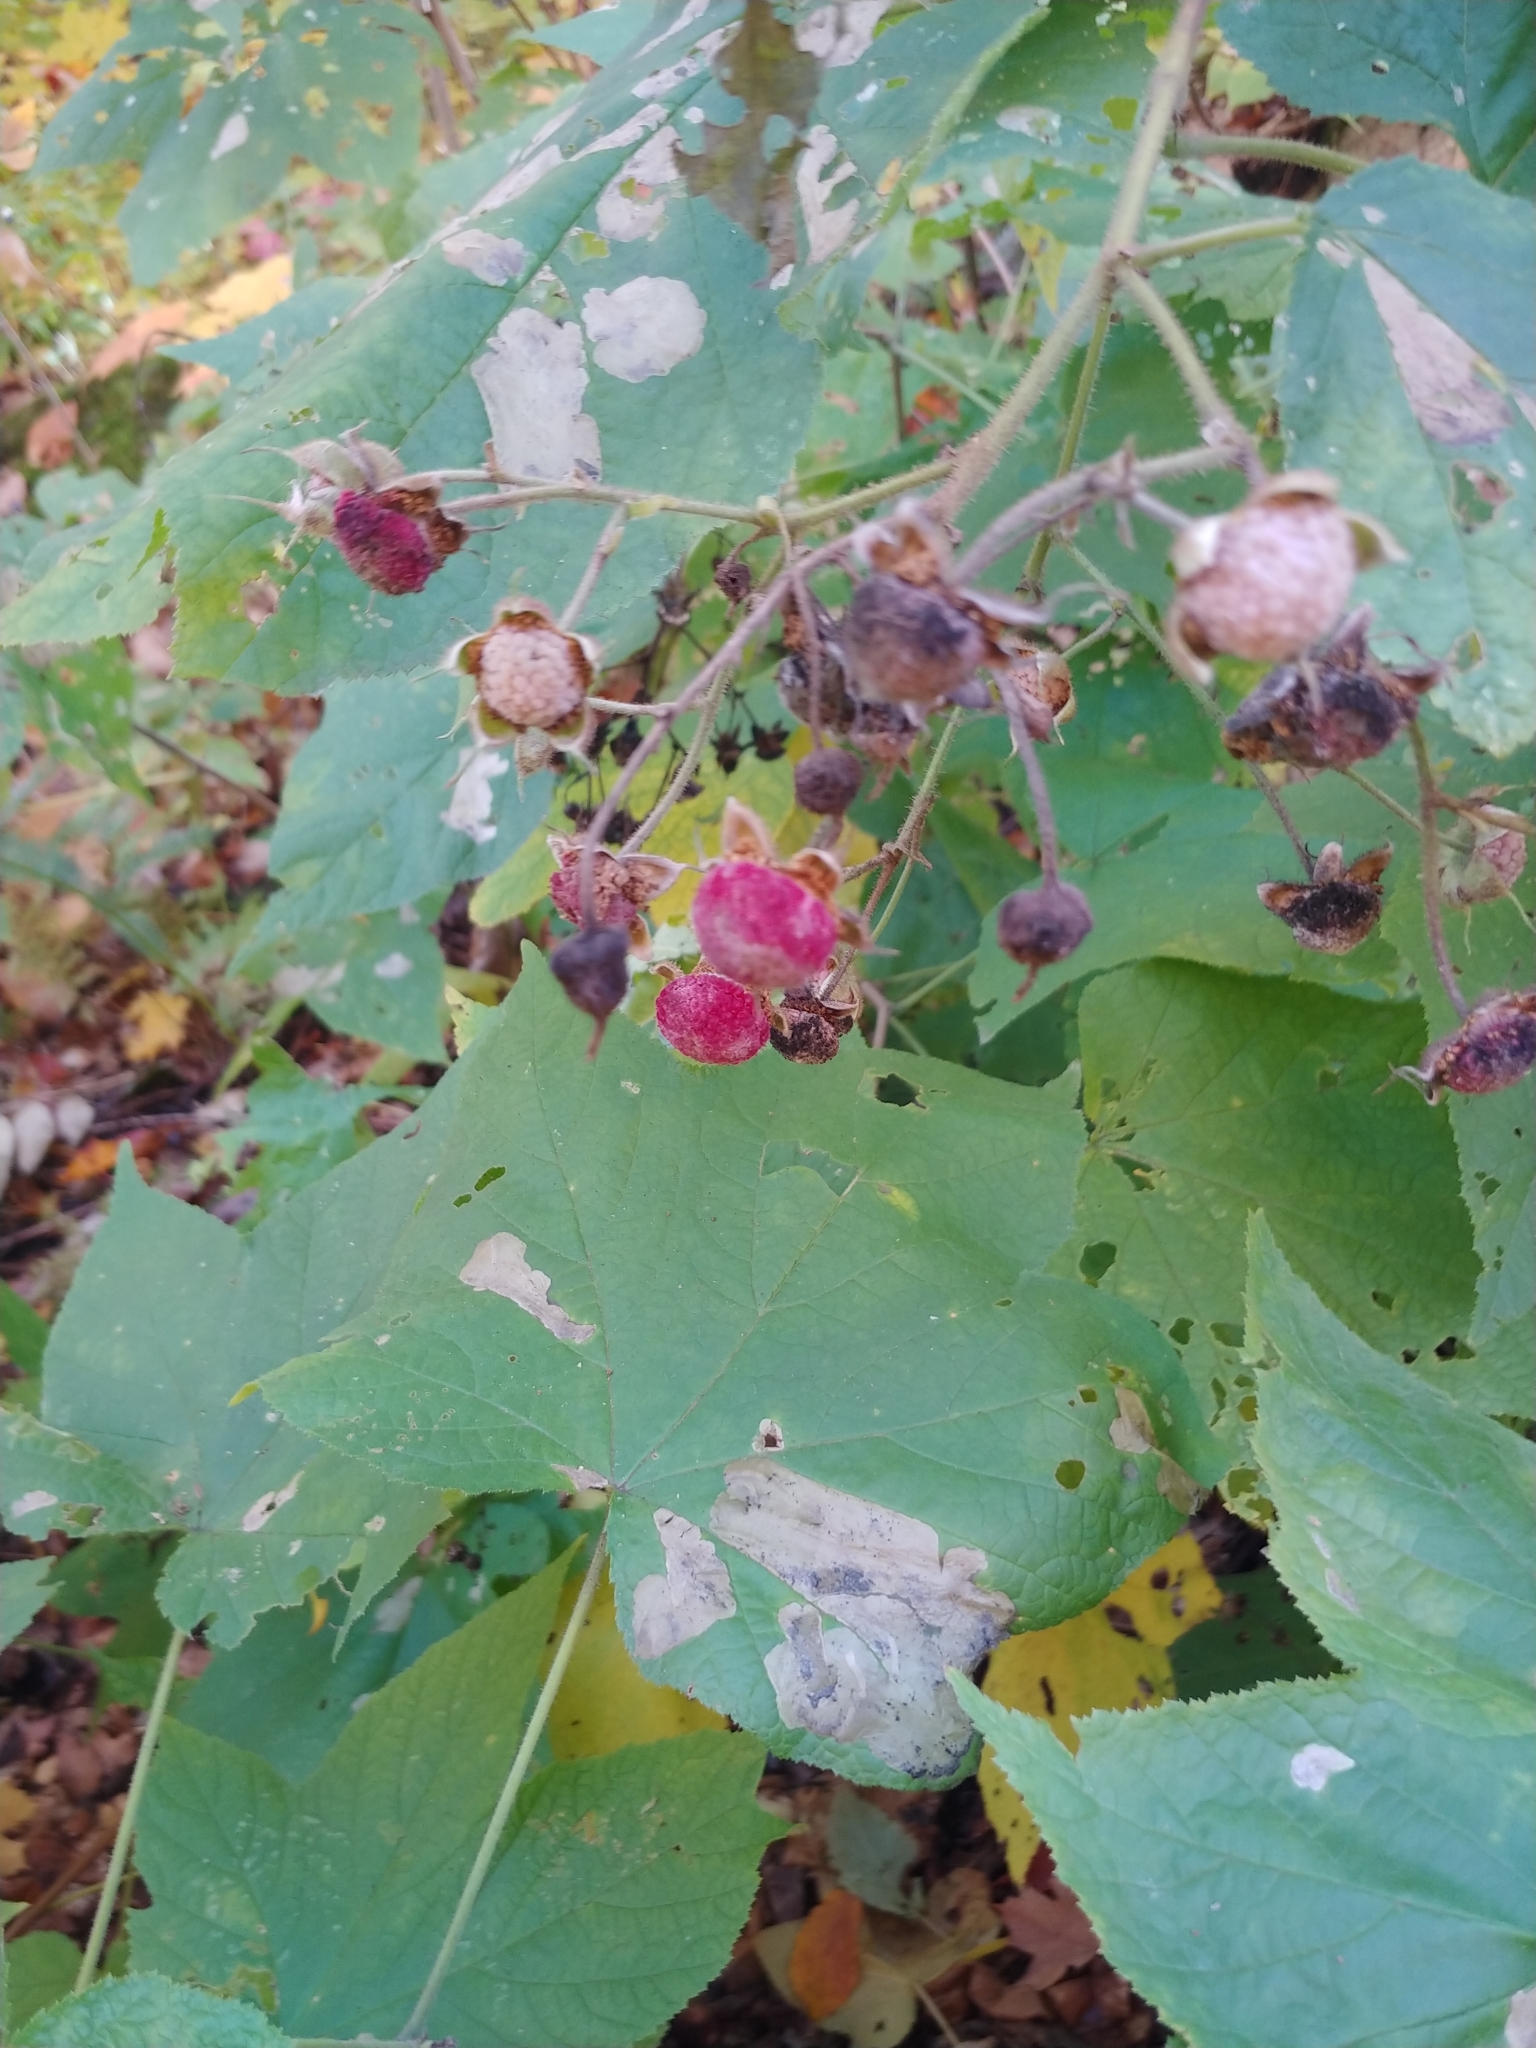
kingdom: Plantae
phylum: Tracheophyta
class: Magnoliopsida
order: Rosales
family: Rosaceae
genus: Rubus
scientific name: Rubus odoratus
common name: Purple-flowered raspberry
